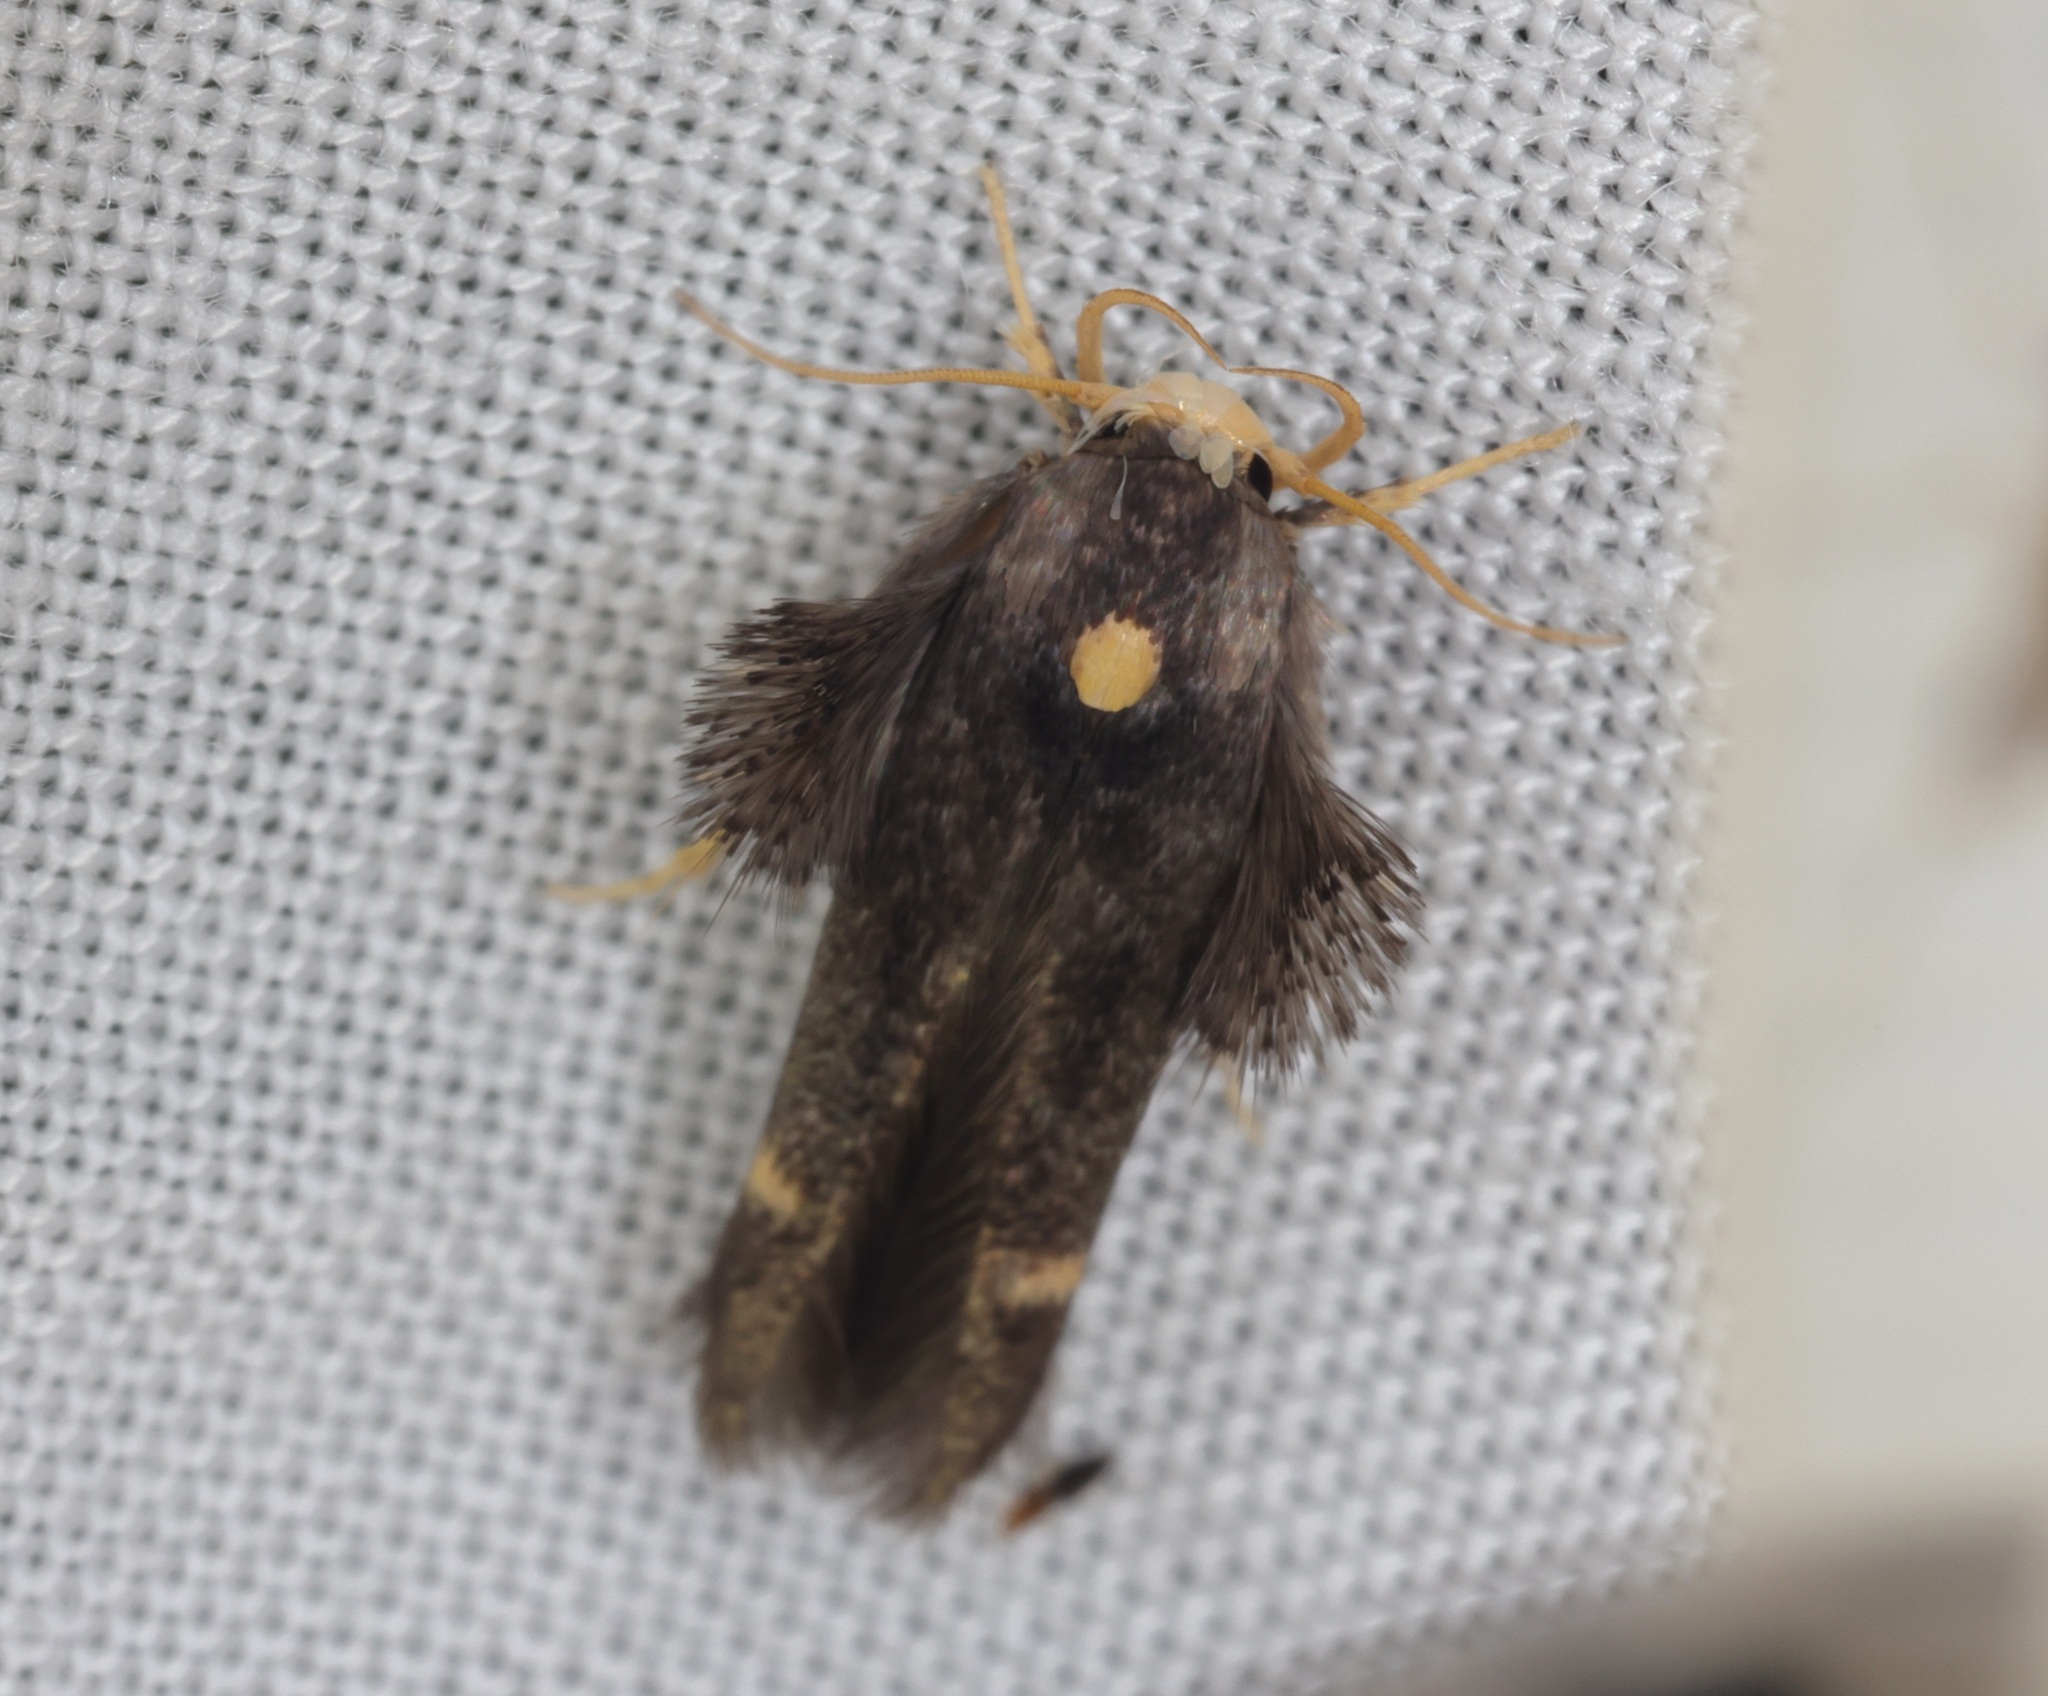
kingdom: Animalia
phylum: Arthropoda
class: Insecta
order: Lepidoptera
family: Stathmopodidae
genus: Stathmopoda
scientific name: Stathmopoda masinissa
